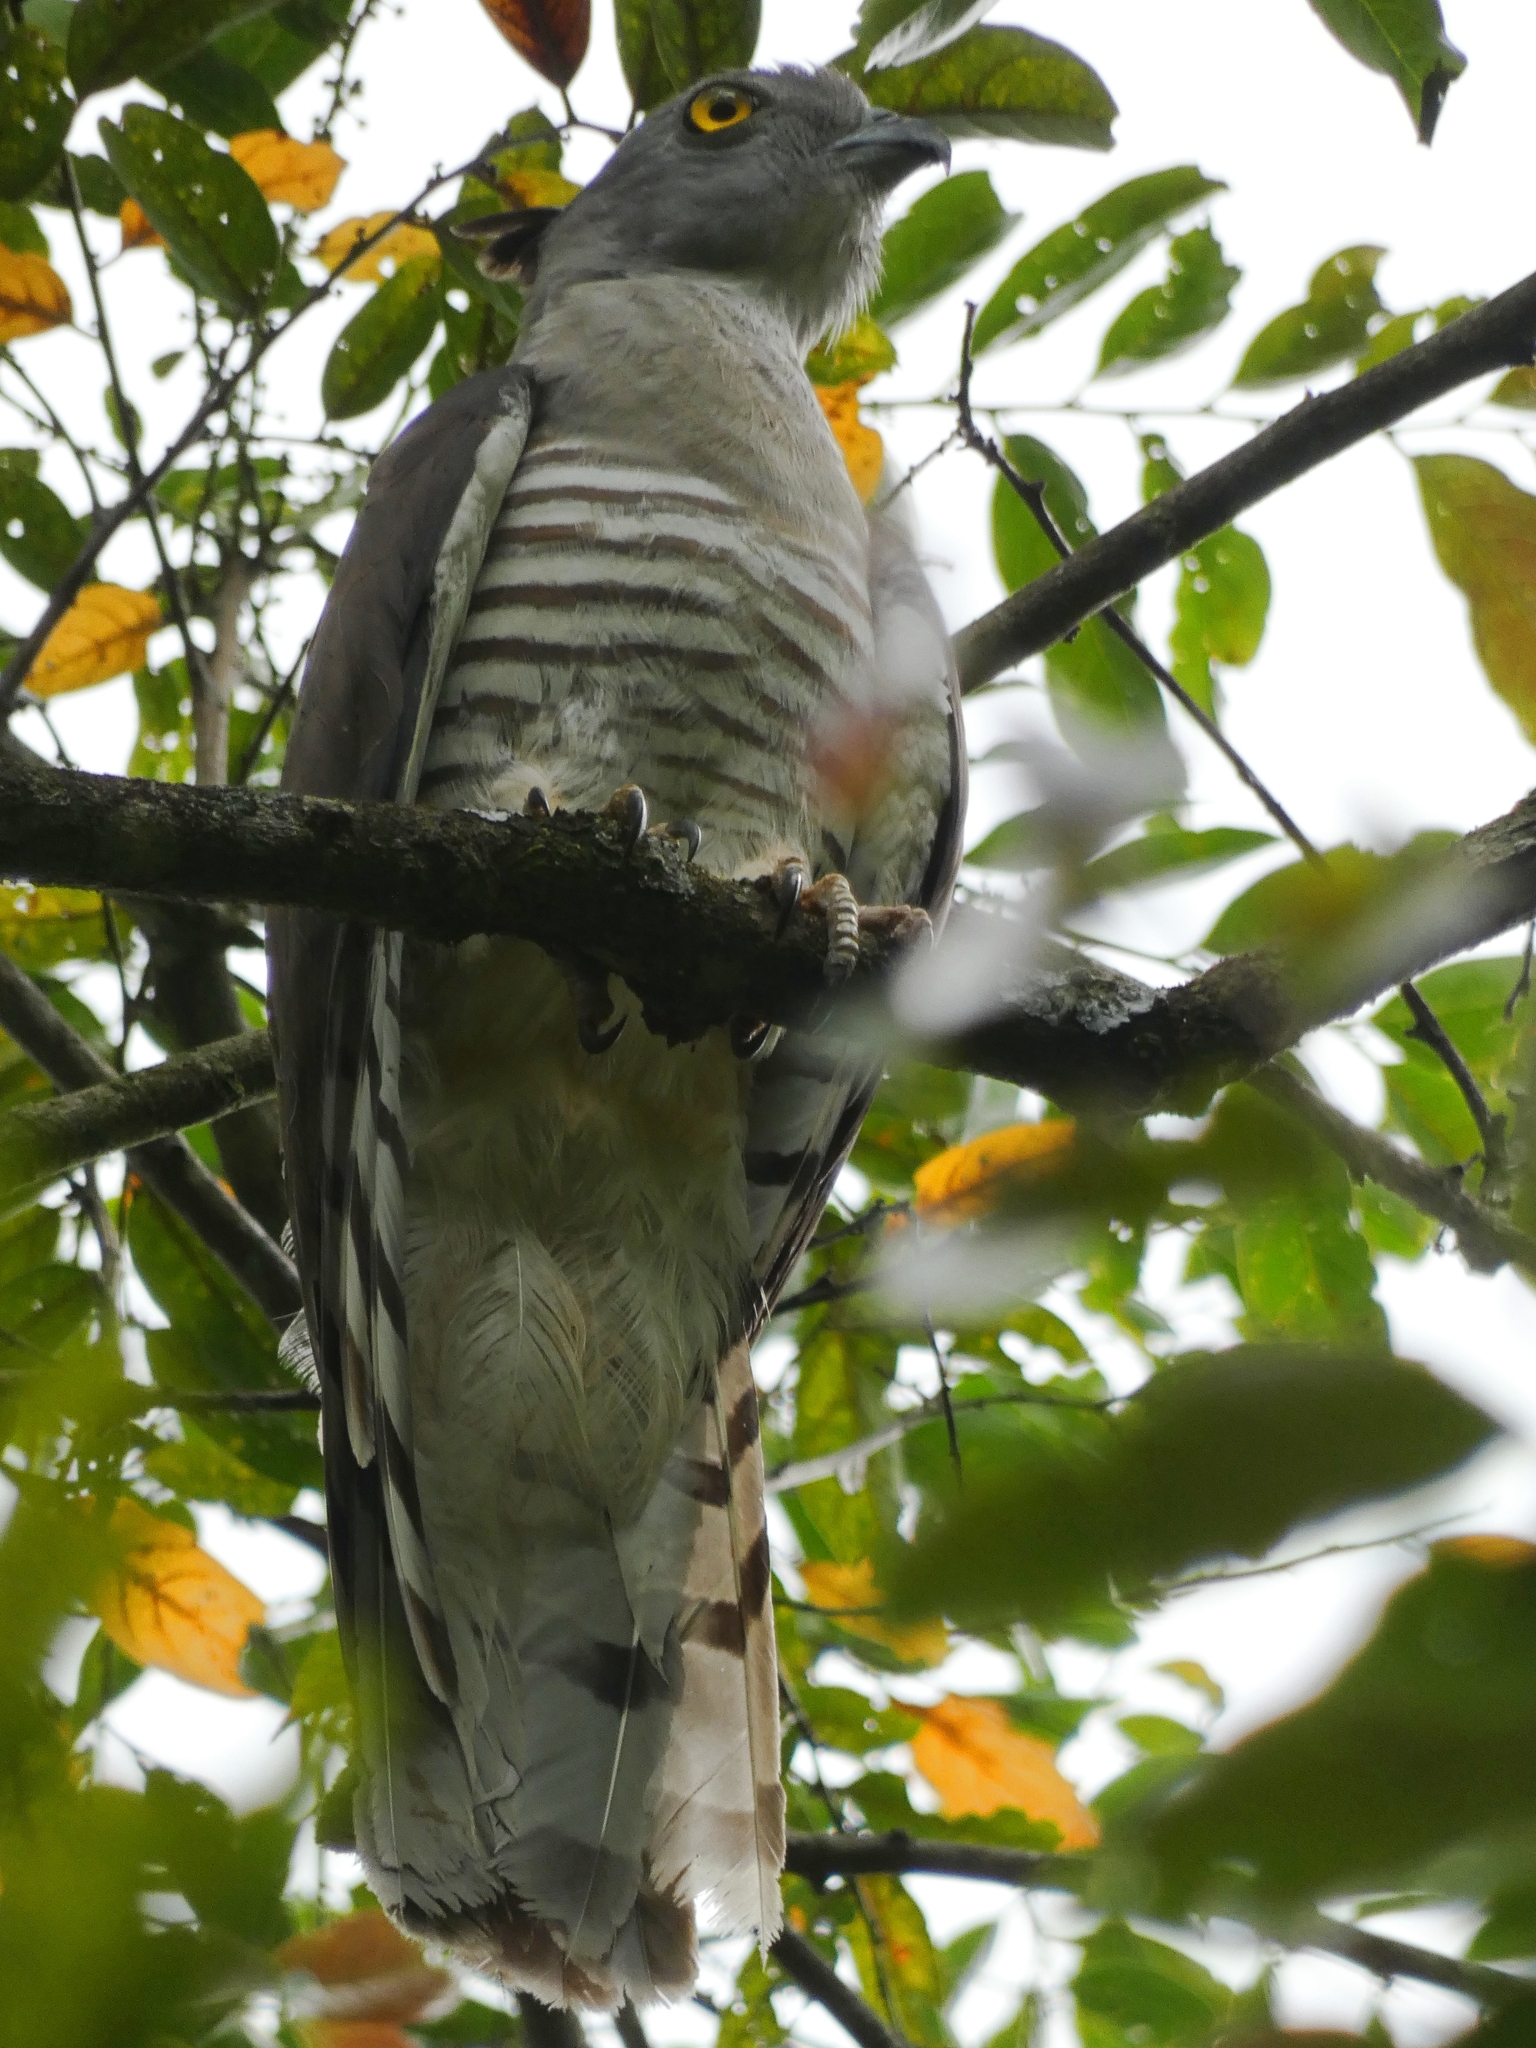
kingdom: Animalia
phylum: Chordata
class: Aves
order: Accipitriformes
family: Accipitridae
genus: Aviceda
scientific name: Aviceda subcristata
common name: Pacific baza
